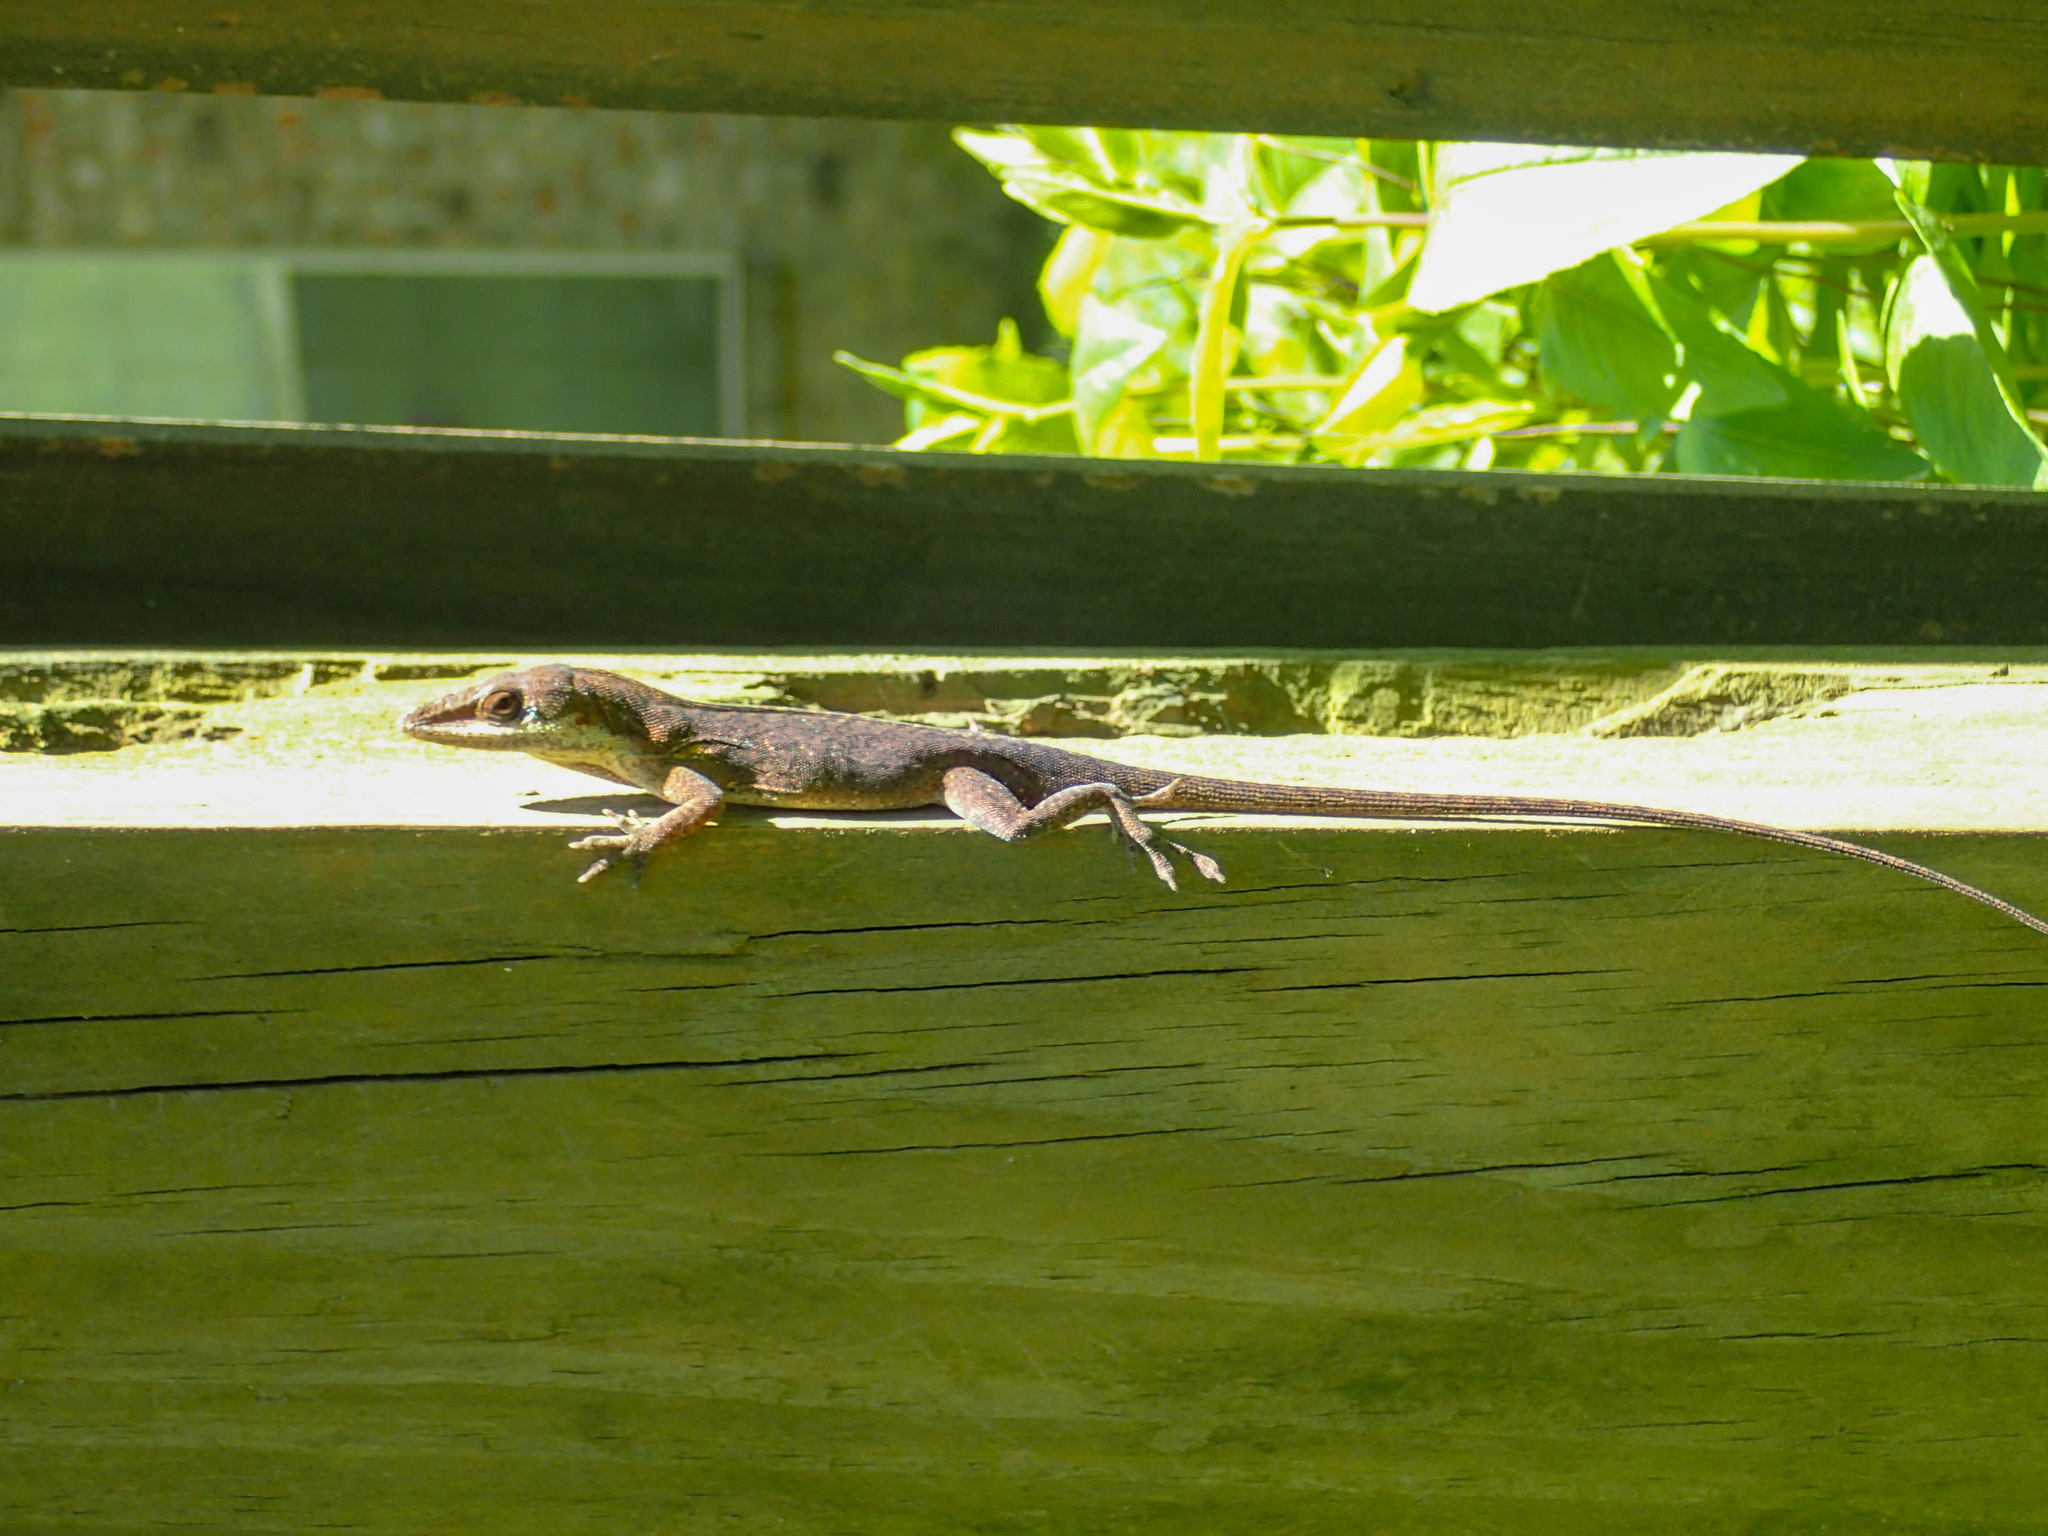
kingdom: Animalia
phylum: Chordata
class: Squamata
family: Dactyloidae
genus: Anolis
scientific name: Anolis carolinensis
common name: Green anole
